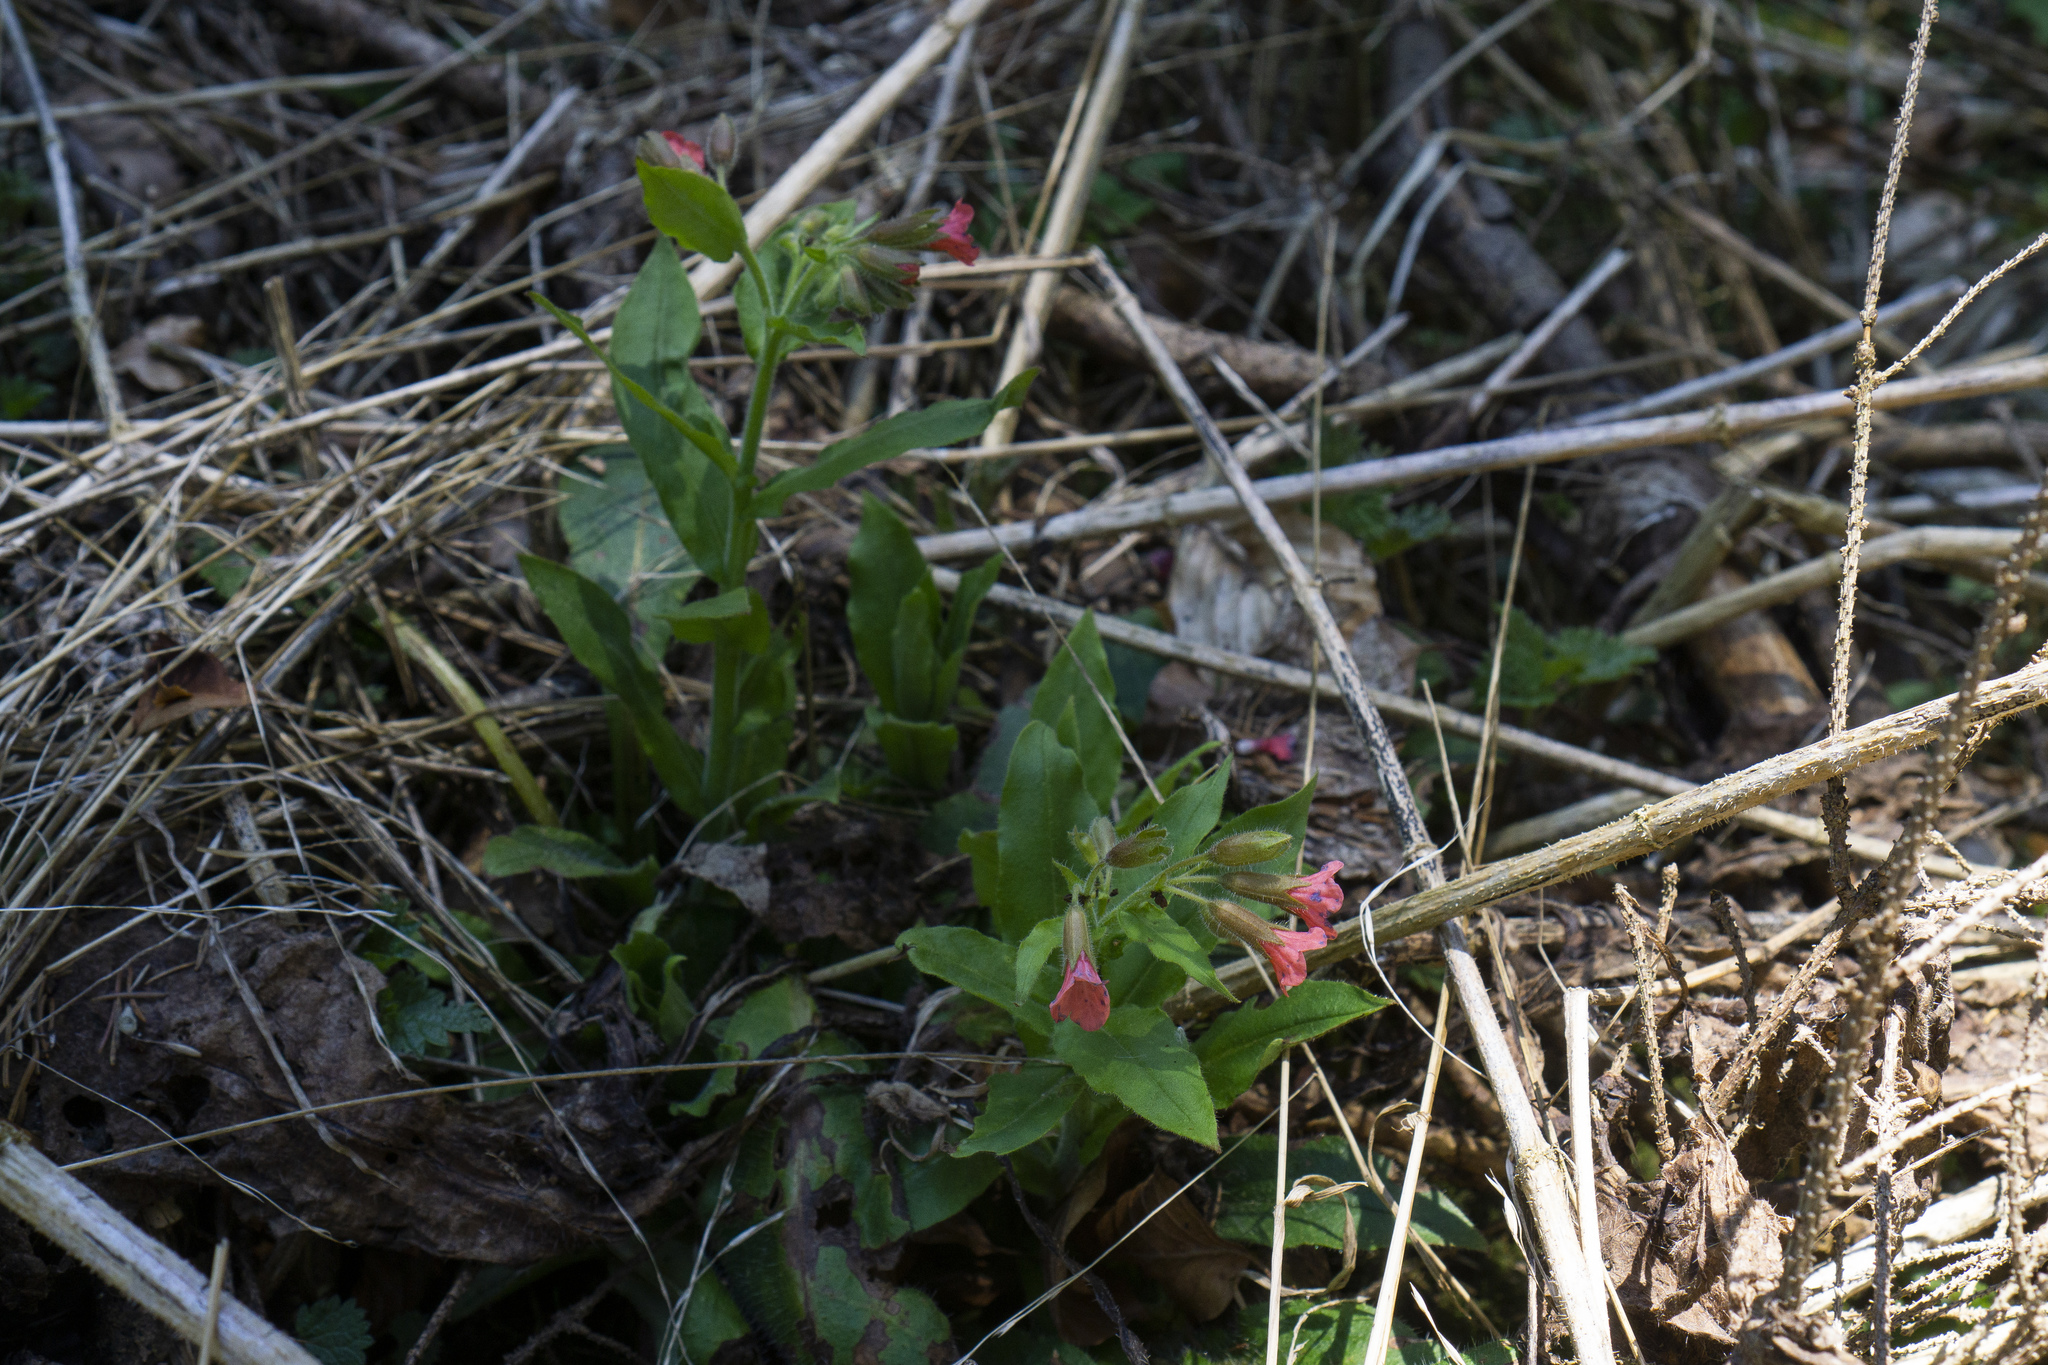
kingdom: Plantae
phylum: Tracheophyta
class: Magnoliopsida
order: Boraginales
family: Boraginaceae
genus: Pulmonaria
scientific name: Pulmonaria rubra
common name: Red lungwort
